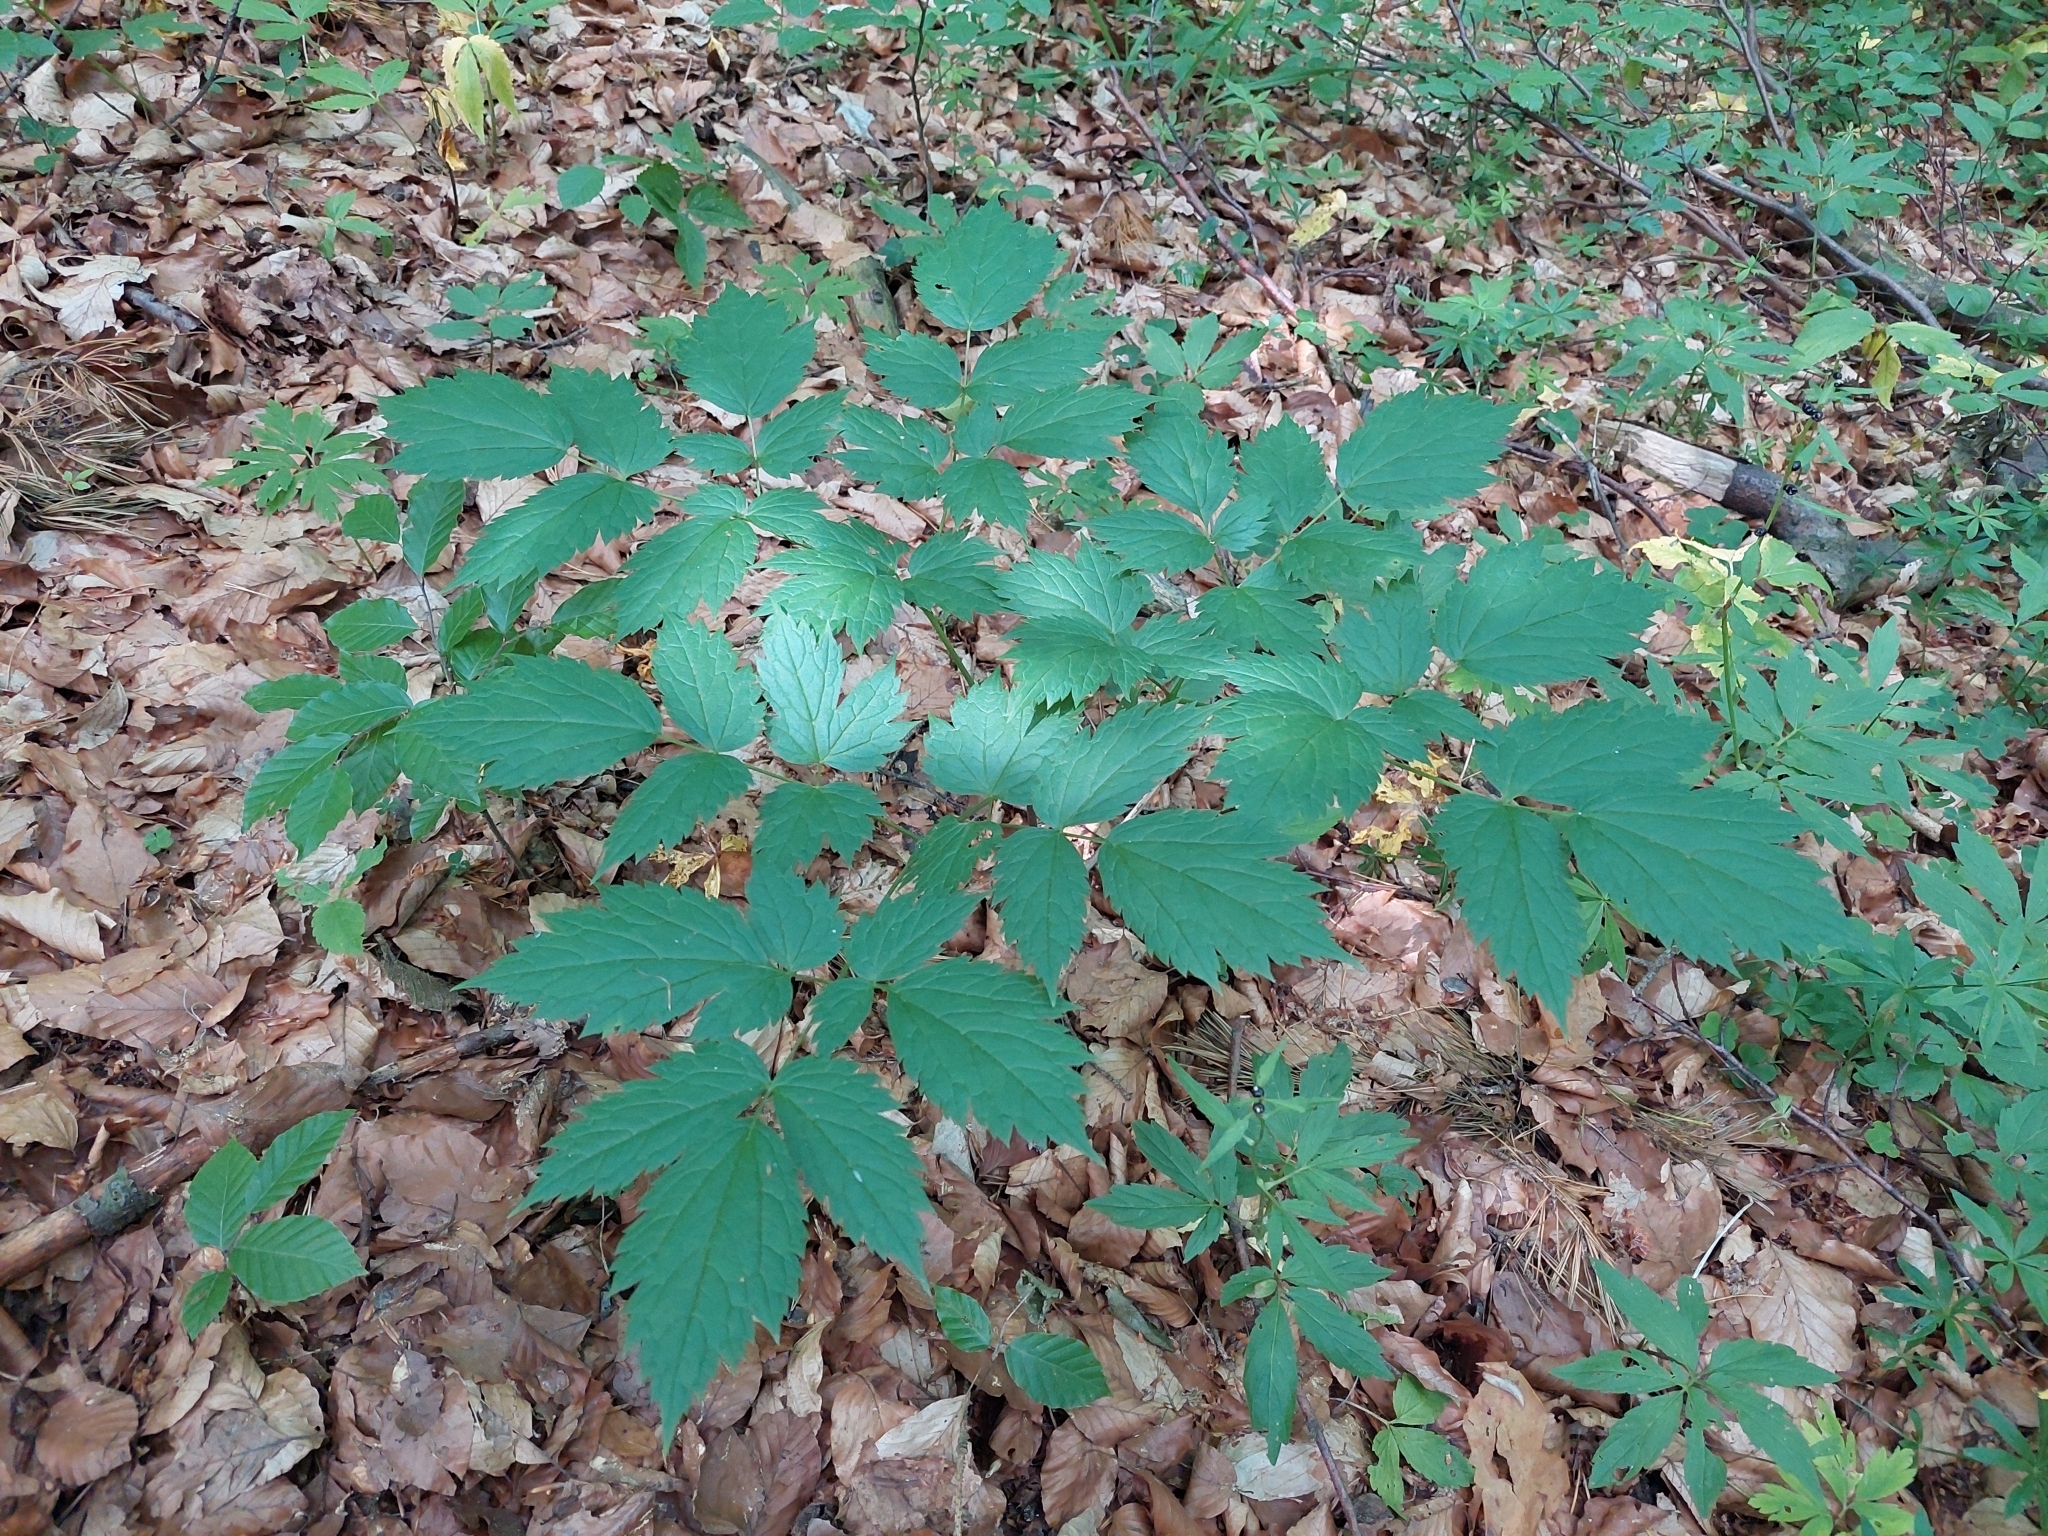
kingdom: Plantae
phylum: Tracheophyta
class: Magnoliopsida
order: Ranunculales
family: Ranunculaceae
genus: Actaea
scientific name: Actaea spicata
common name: Baneberry
